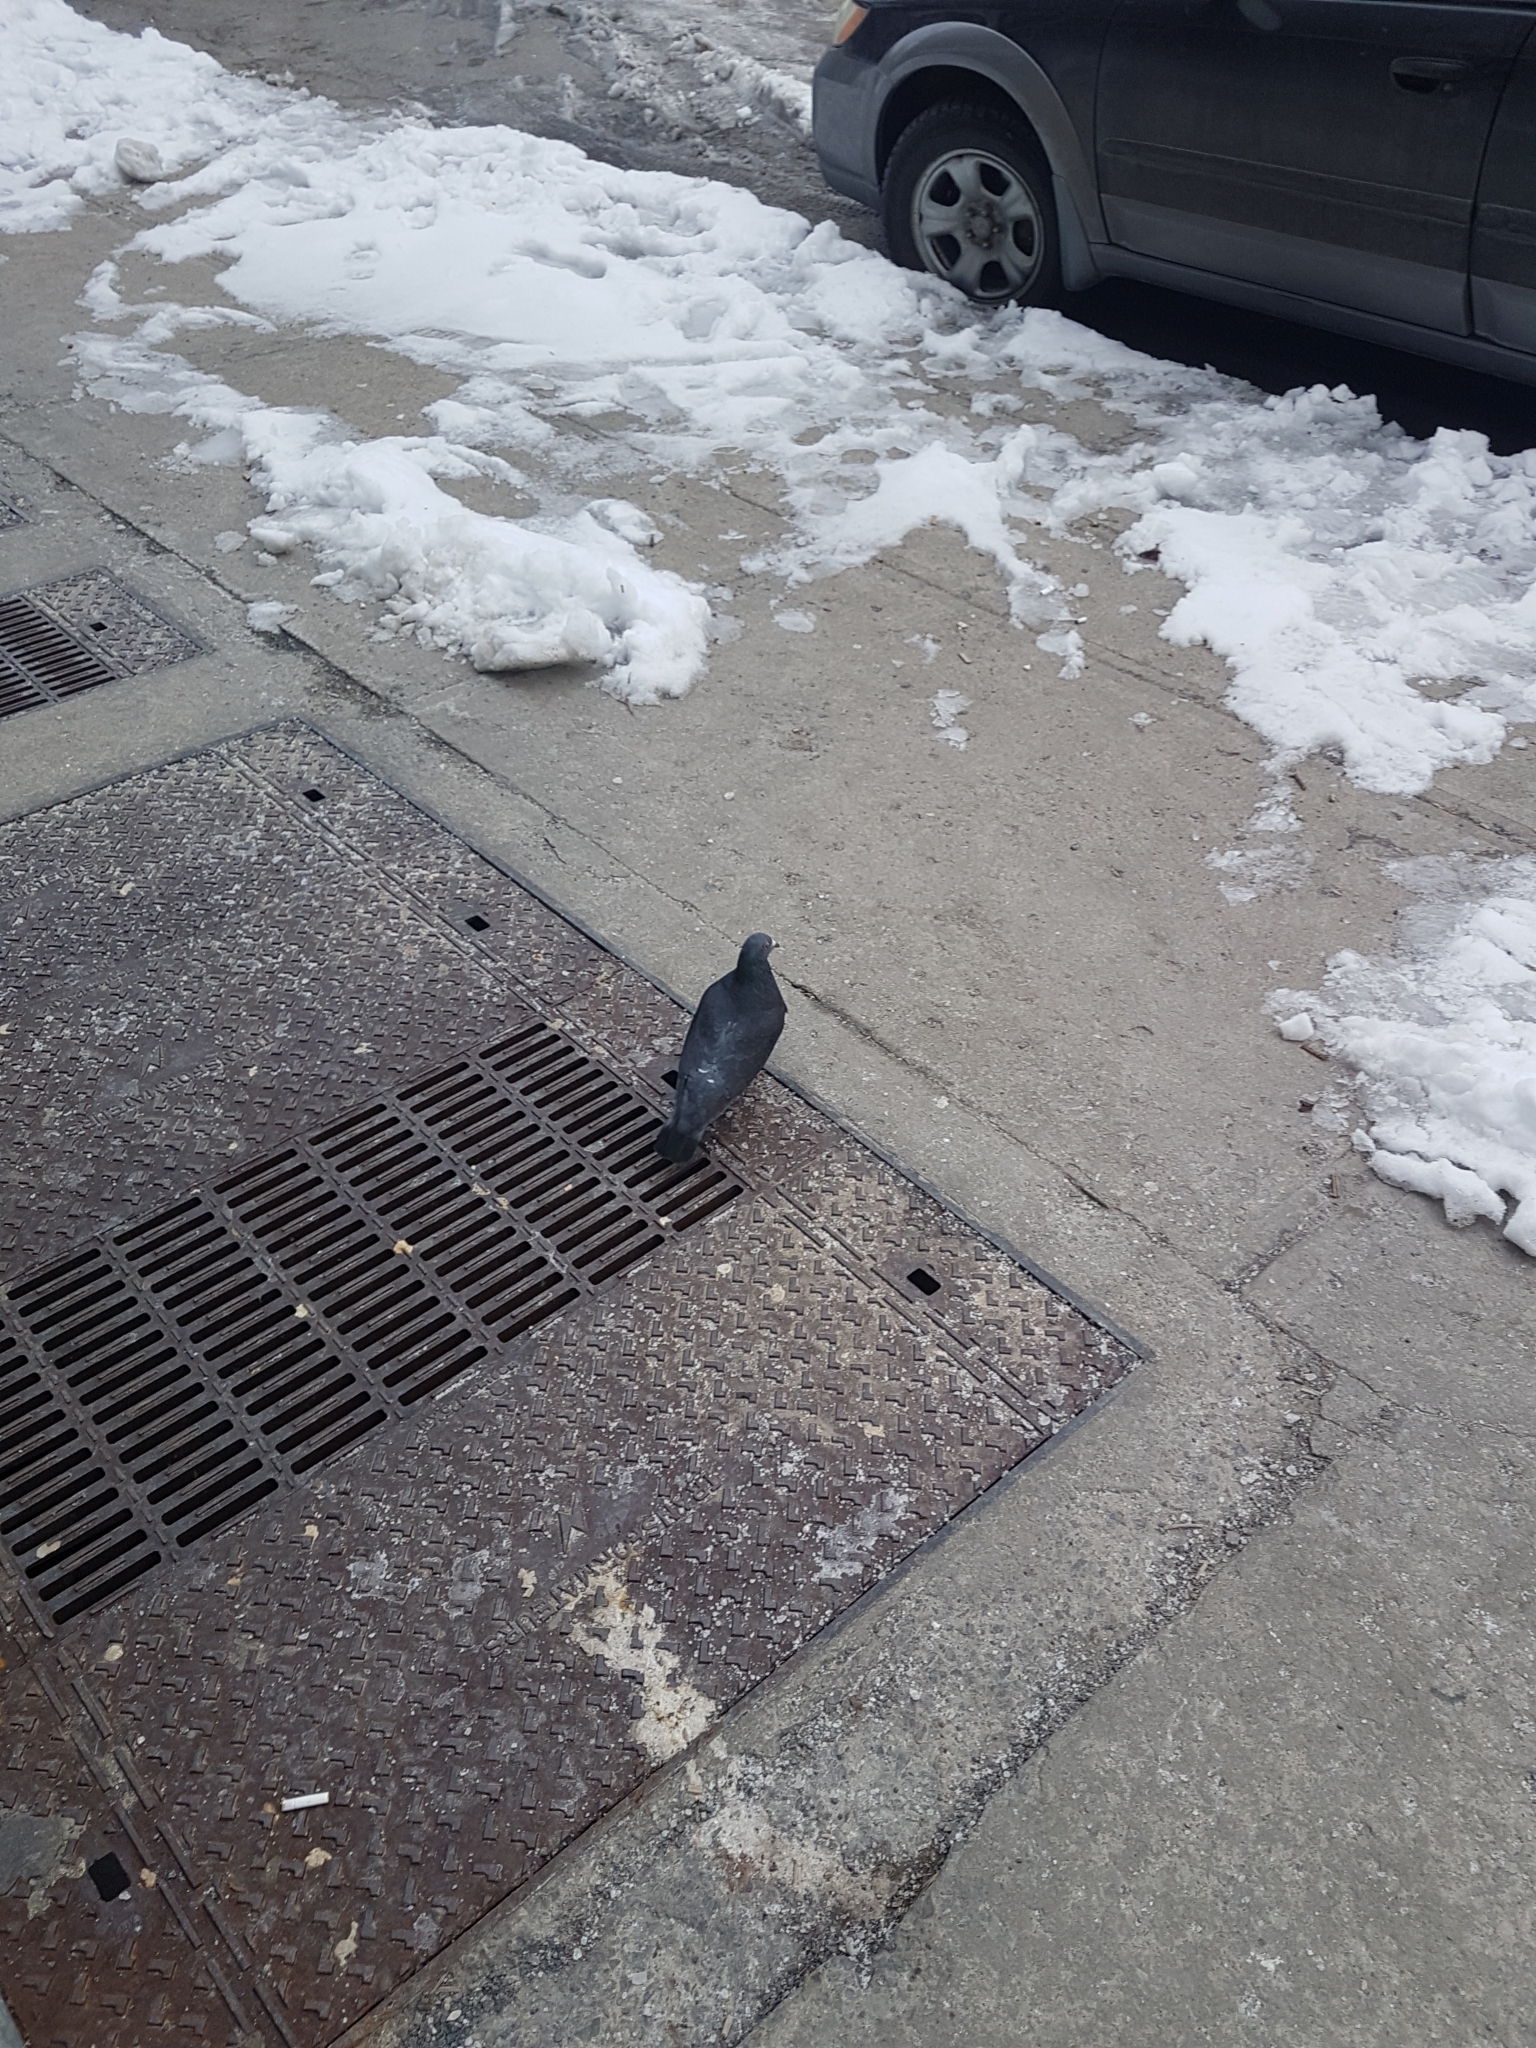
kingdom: Animalia
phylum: Chordata
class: Aves
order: Columbiformes
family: Columbidae
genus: Columba
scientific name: Columba livia
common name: Rock pigeon
